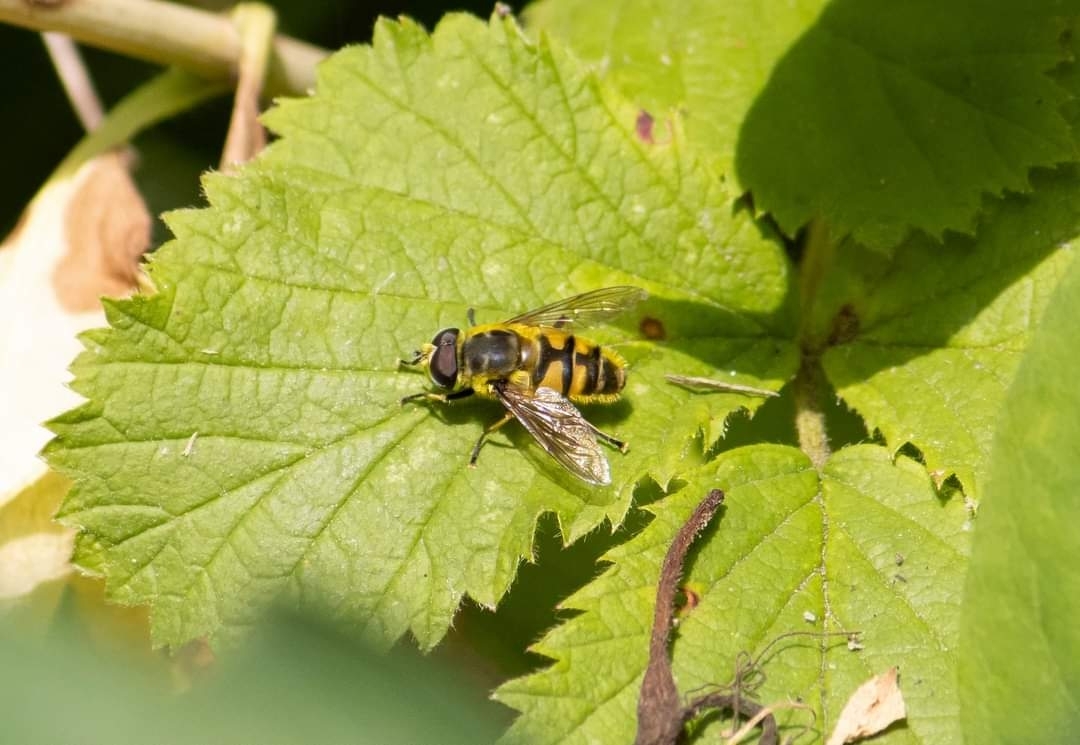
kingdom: Animalia
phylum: Arthropoda
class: Insecta
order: Diptera
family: Syrphidae
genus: Myathropa
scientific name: Myathropa florea
